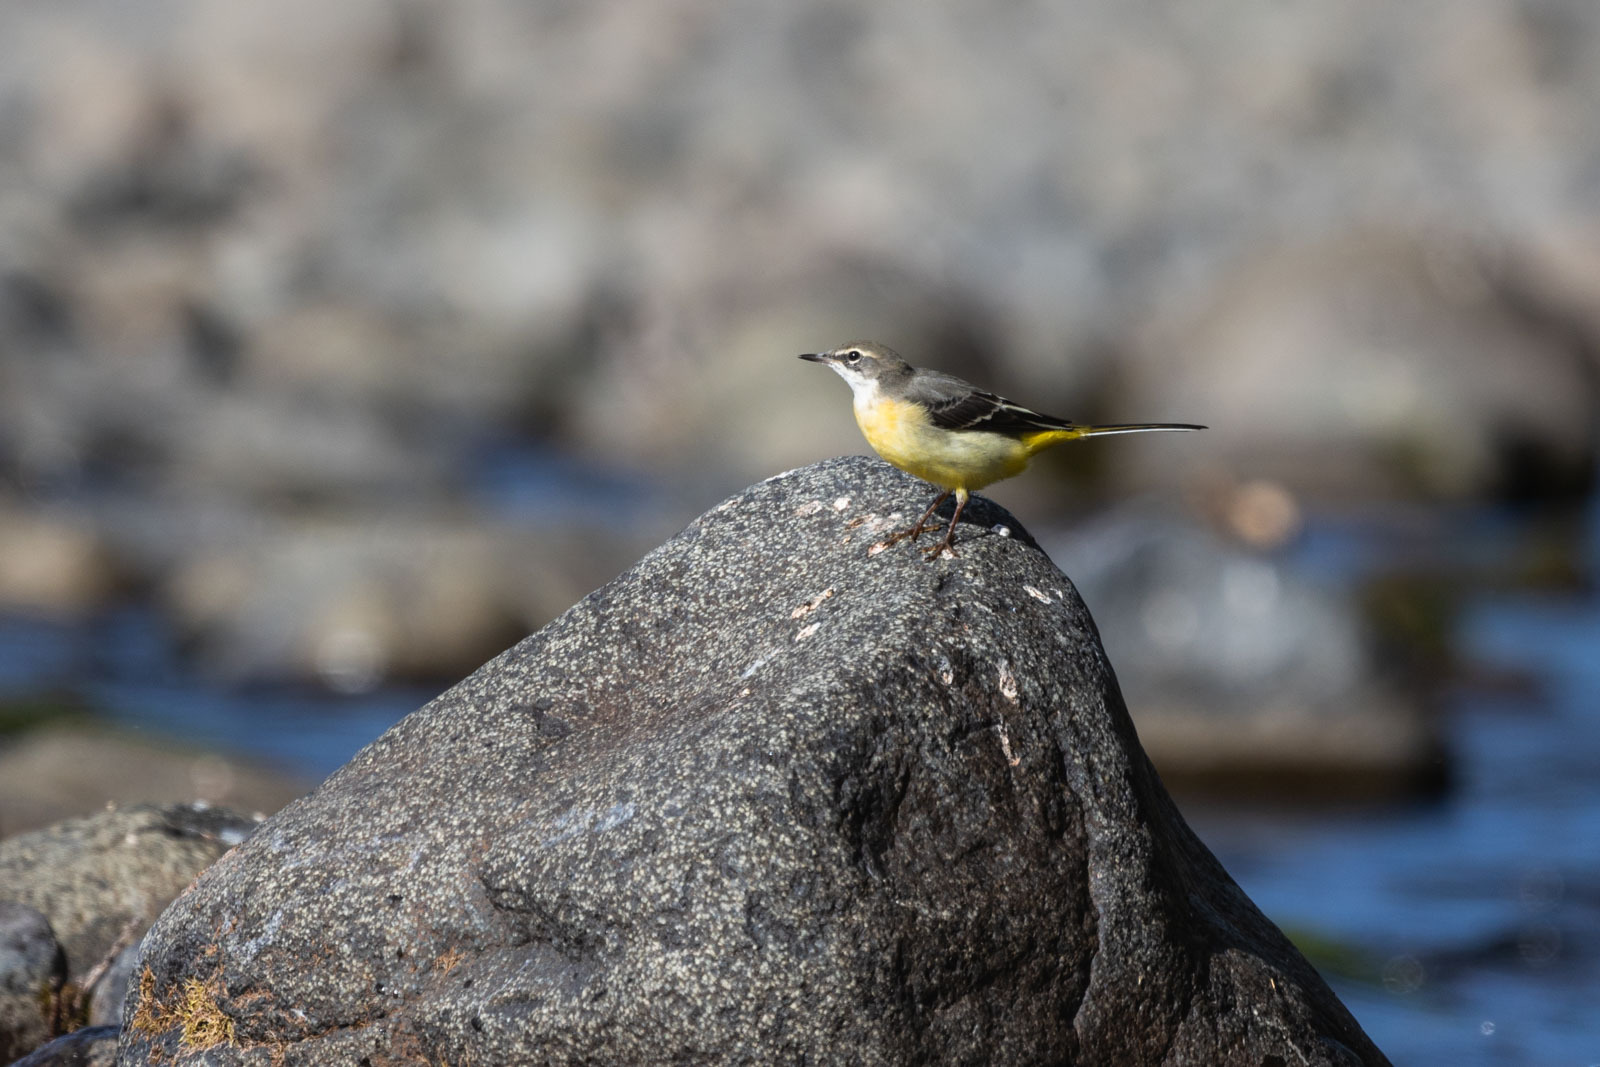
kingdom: Animalia
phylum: Chordata
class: Aves
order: Passeriformes
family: Motacillidae
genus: Motacilla
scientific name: Motacilla cinerea
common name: Grey wagtail
